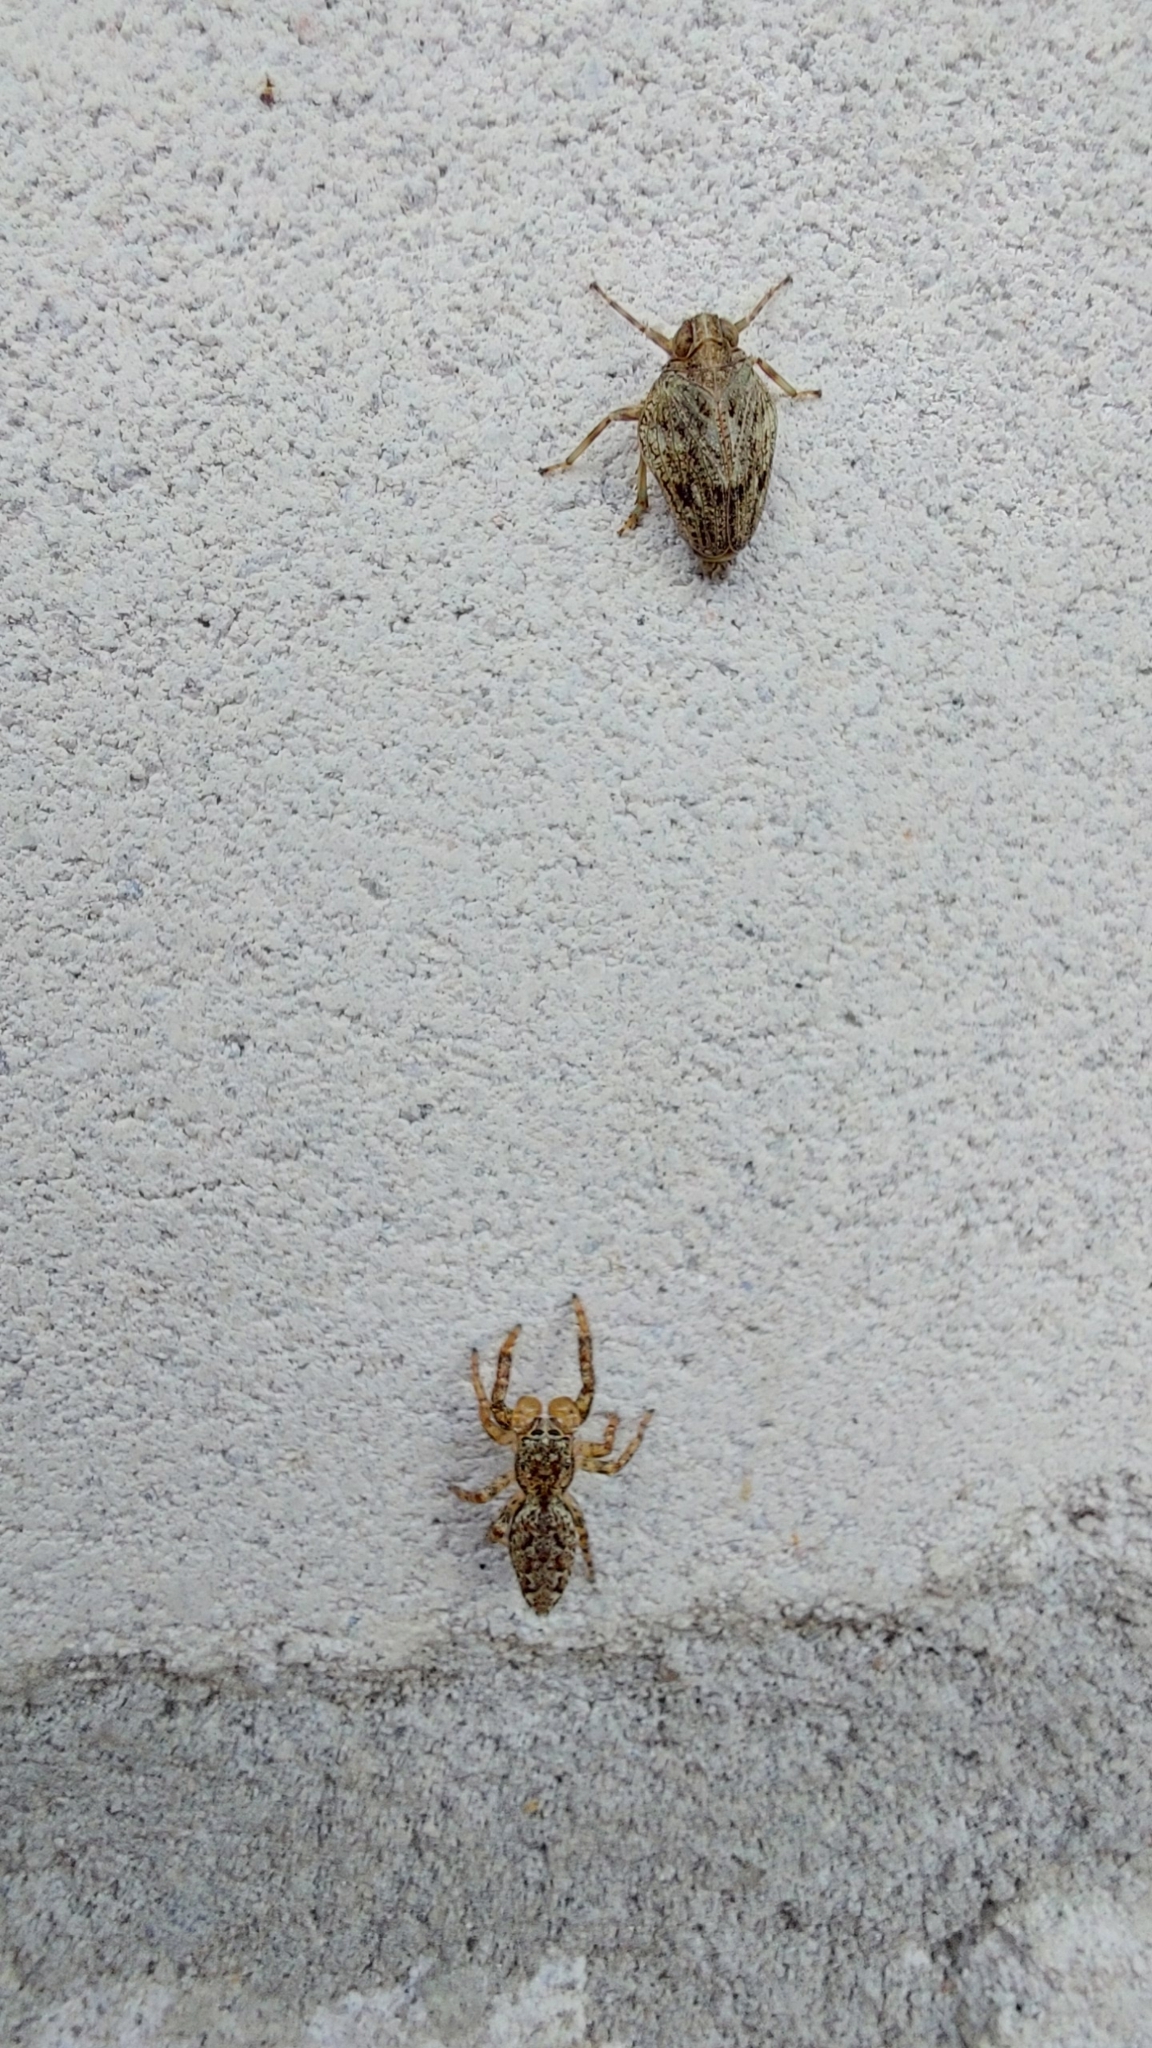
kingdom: Animalia
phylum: Arthropoda
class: Arachnida
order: Araneae
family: Salticidae
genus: Marpissa
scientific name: Marpissa muscosa
